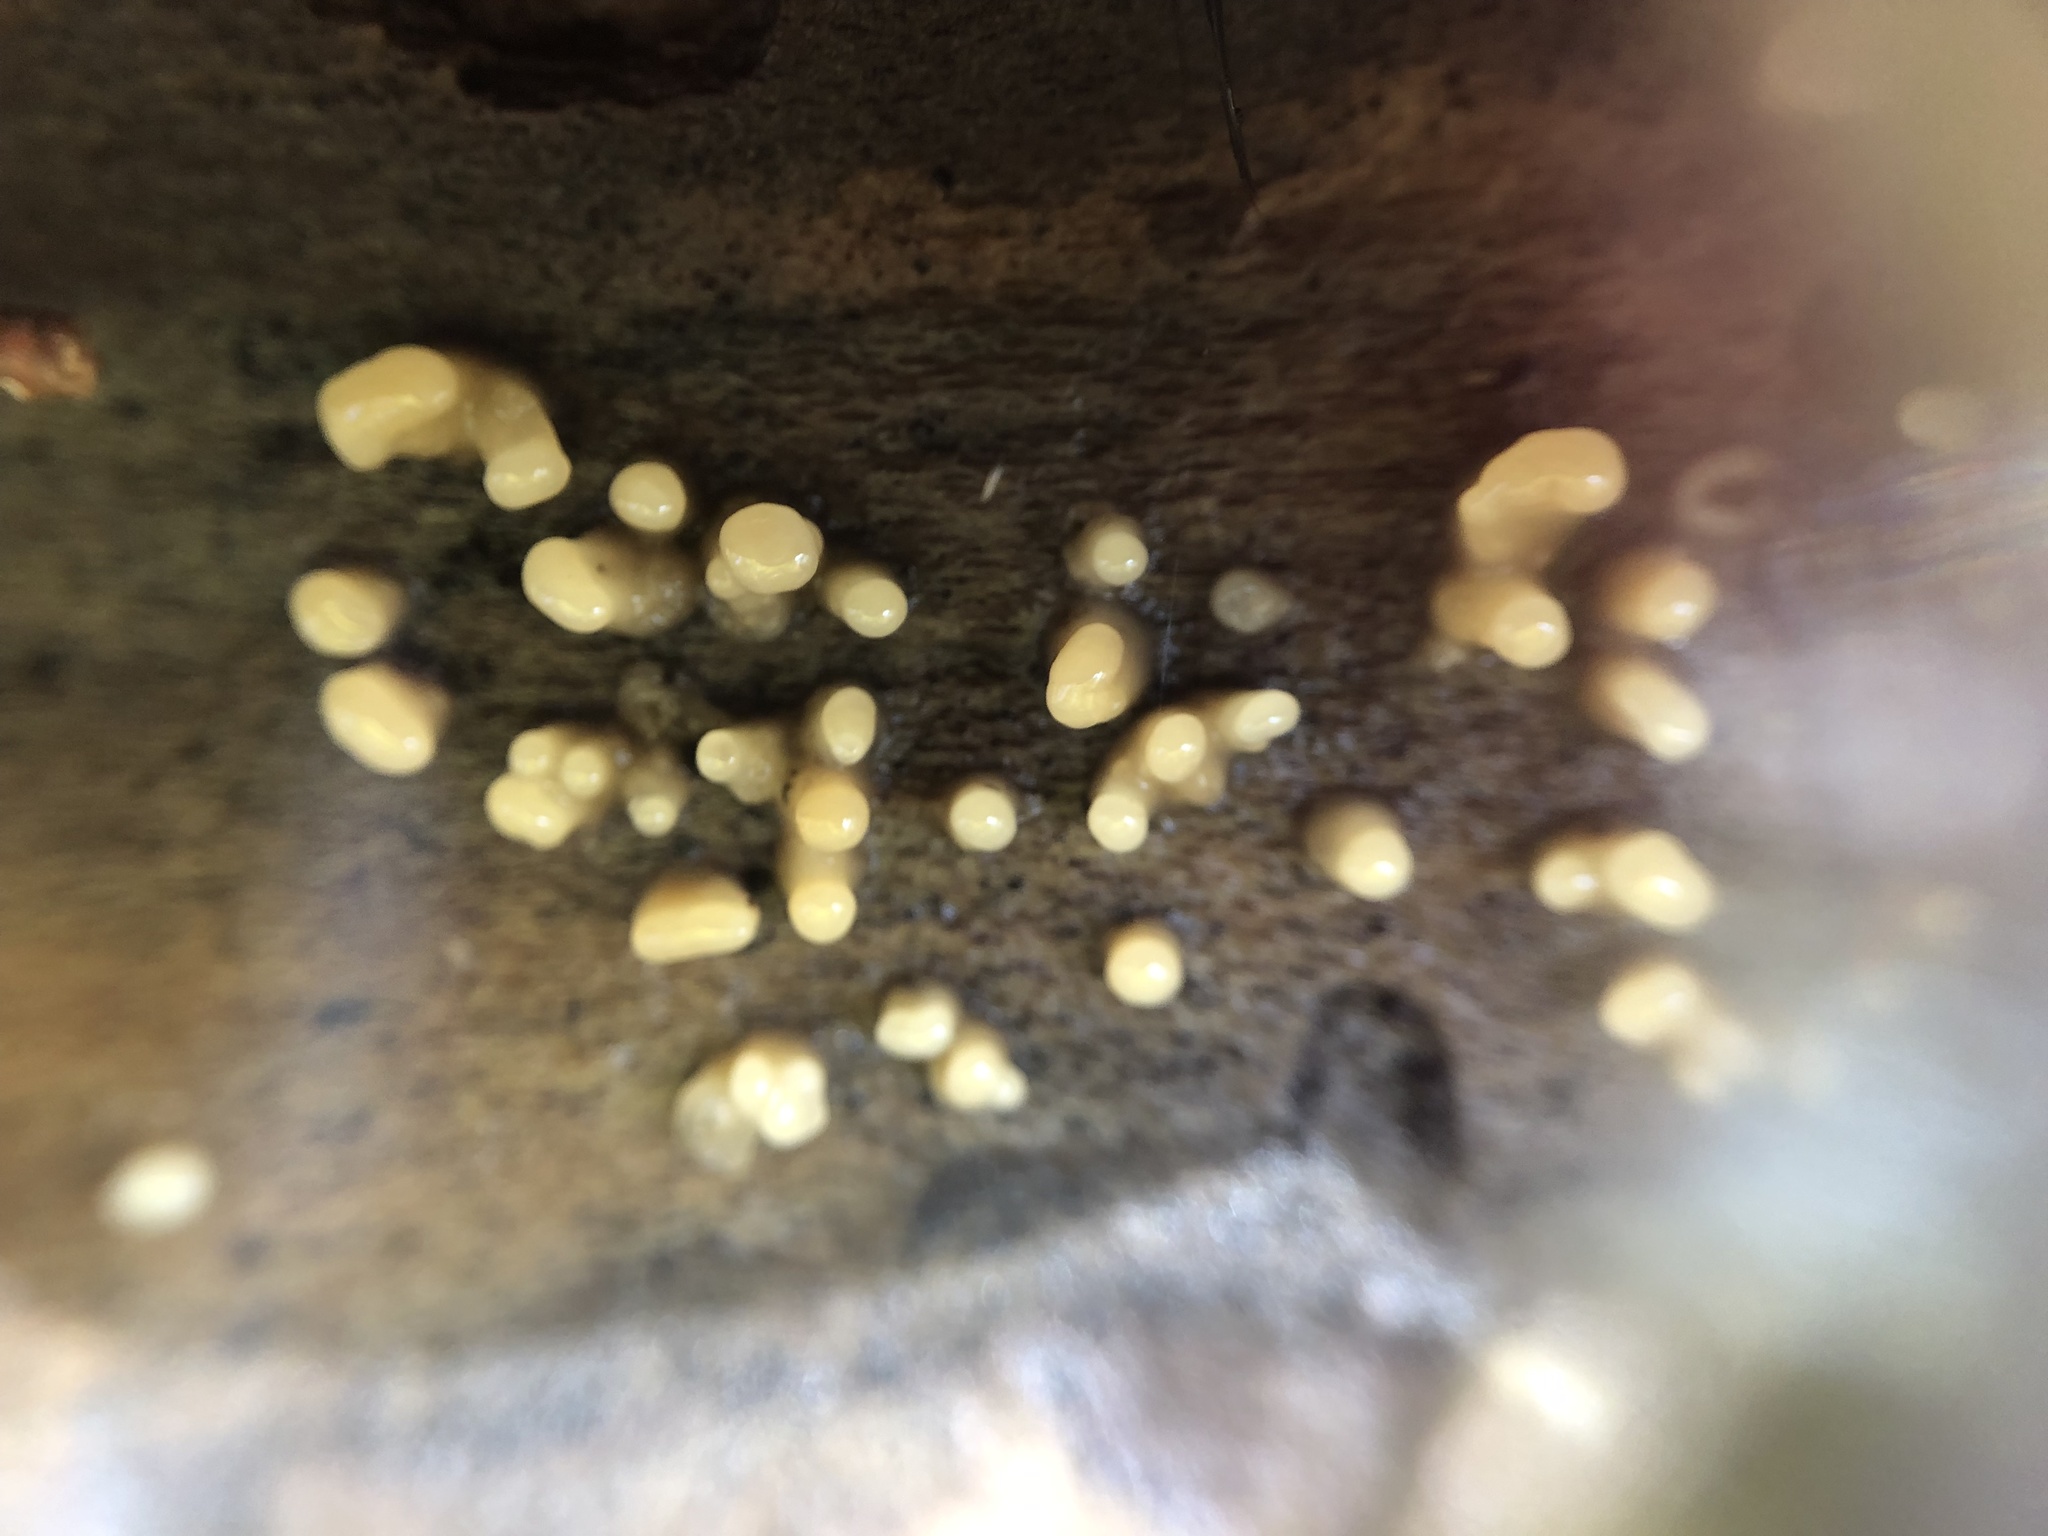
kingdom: Fungi
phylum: Basidiomycota
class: Atractiellomycetes
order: Atractiellales
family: Phleogenaceae
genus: Helicogloea
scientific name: Helicogloea compressa
